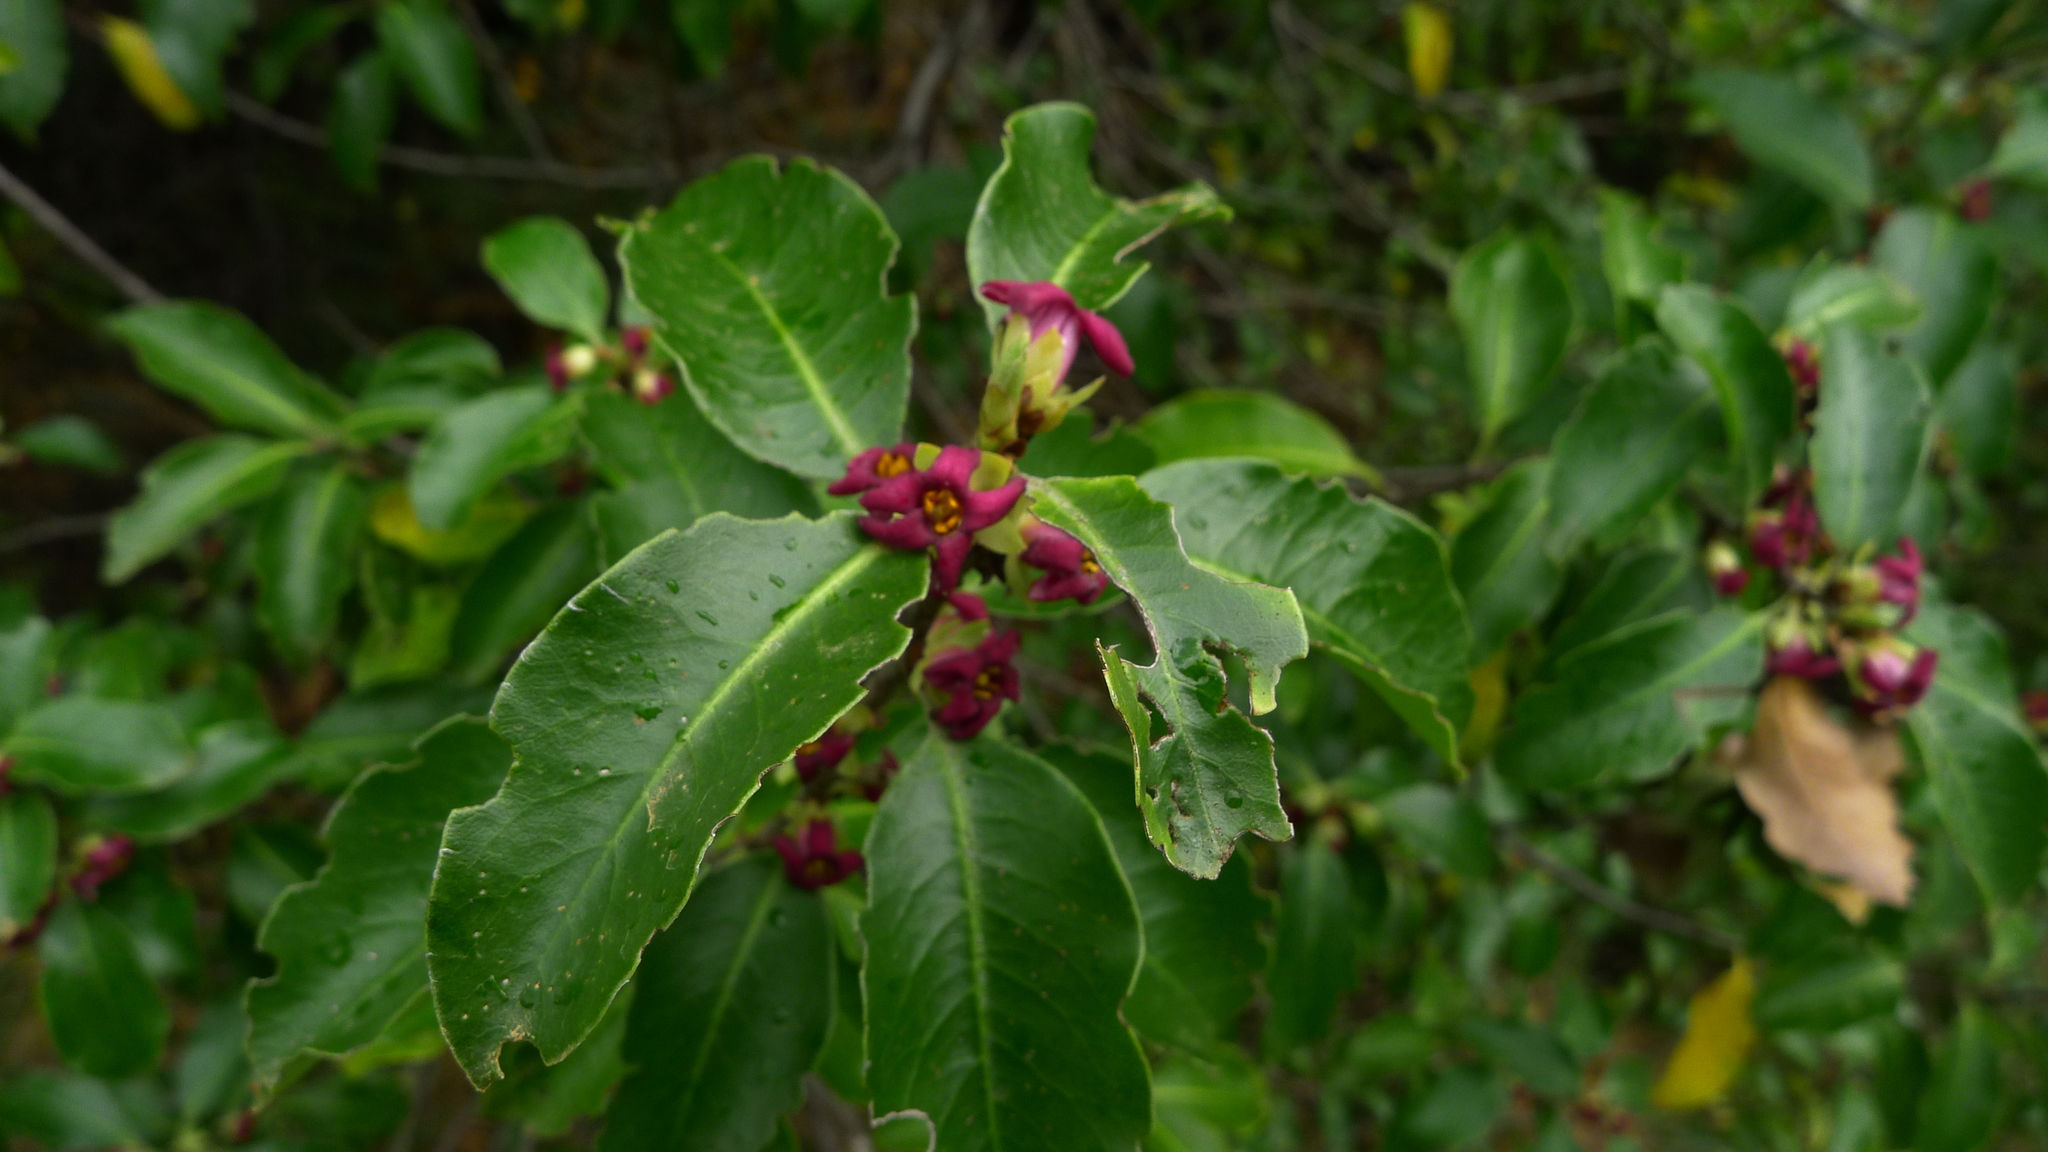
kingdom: Plantae
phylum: Tracheophyta
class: Magnoliopsida
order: Apiales
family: Pittosporaceae
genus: Pittosporum
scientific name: Pittosporum colensoi
